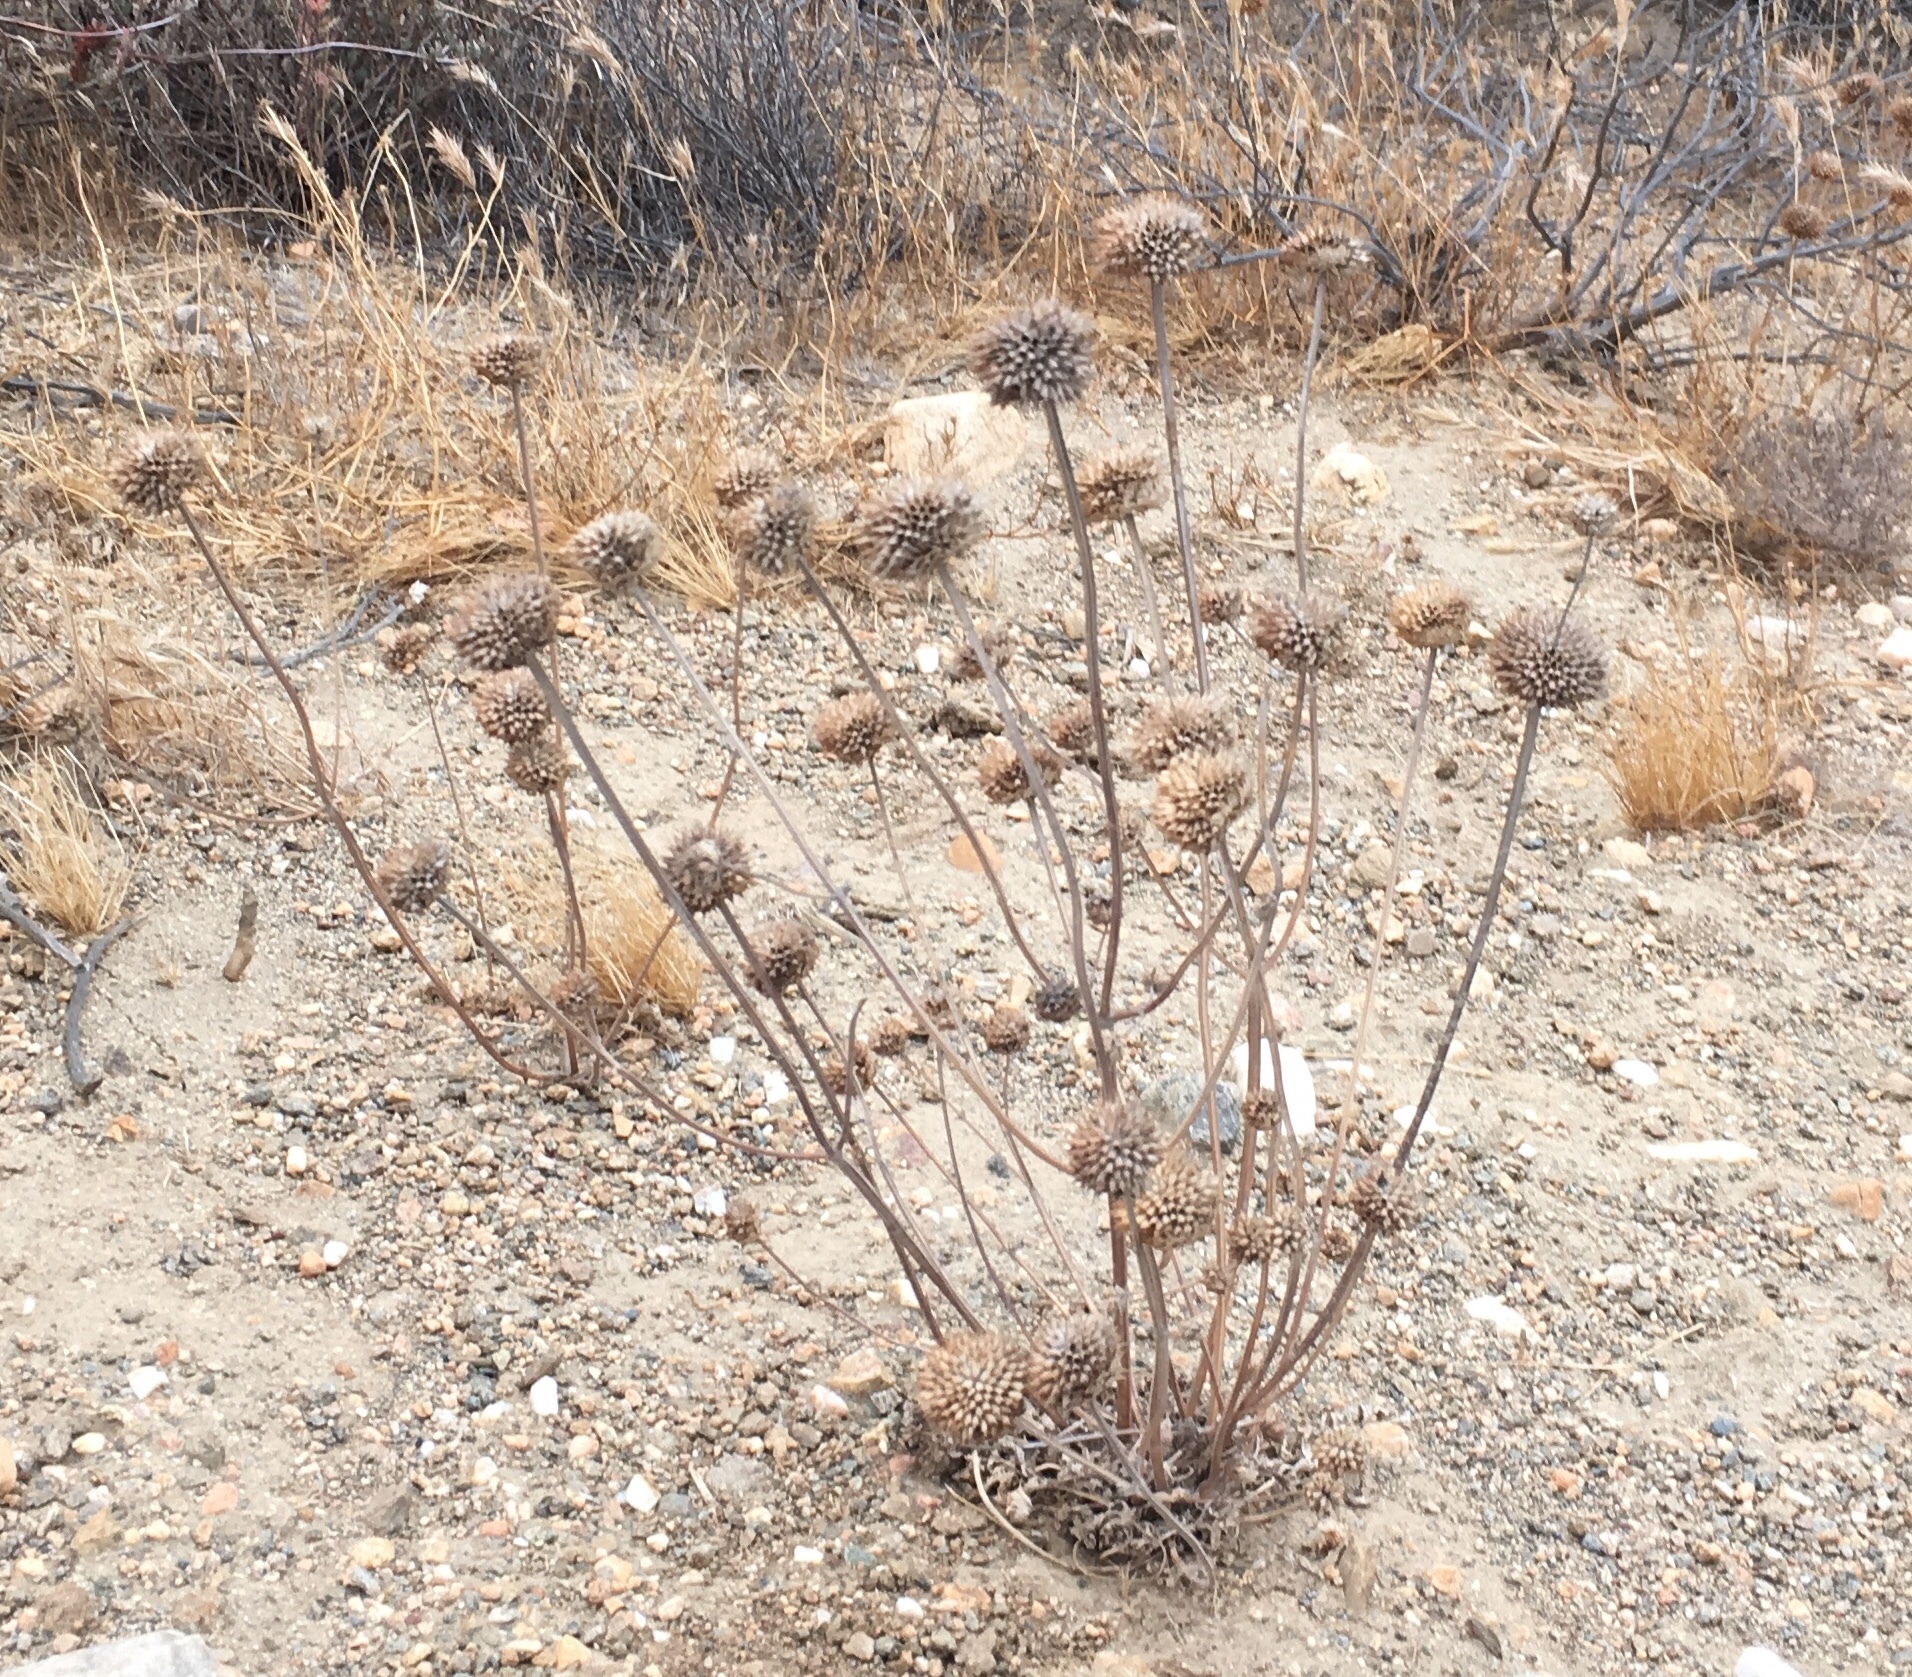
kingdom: Plantae
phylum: Tracheophyta
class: Magnoliopsida
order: Lamiales
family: Lamiaceae
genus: Salvia
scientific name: Salvia columbariae
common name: Chia
